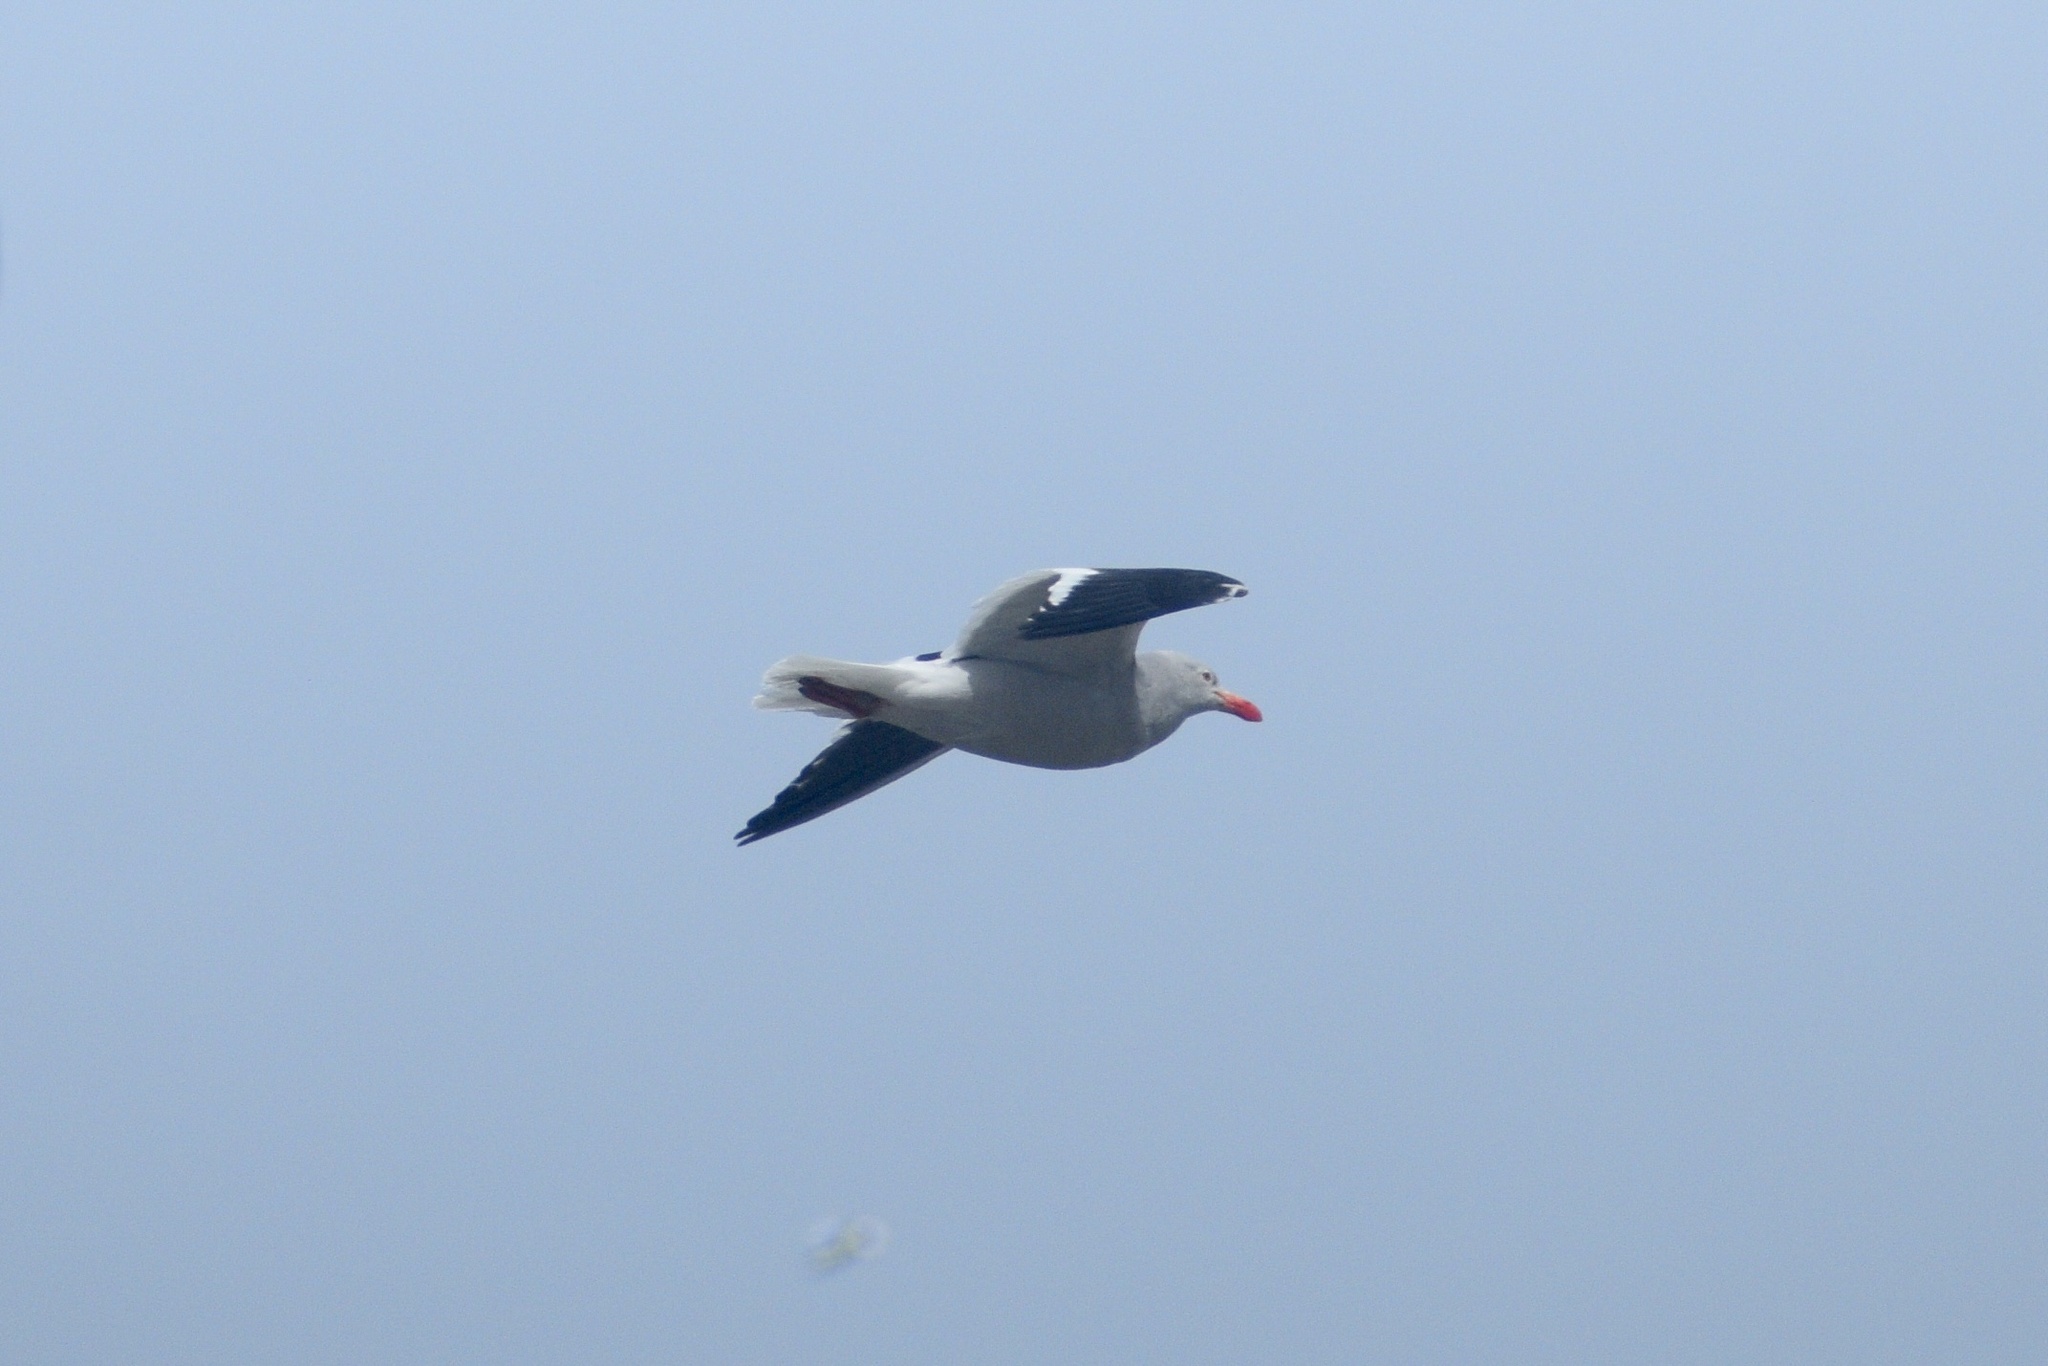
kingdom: Animalia
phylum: Chordata
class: Aves
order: Charadriiformes
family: Laridae
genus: Leucophaeus
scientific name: Leucophaeus scoresbii
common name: Dolphin gull
